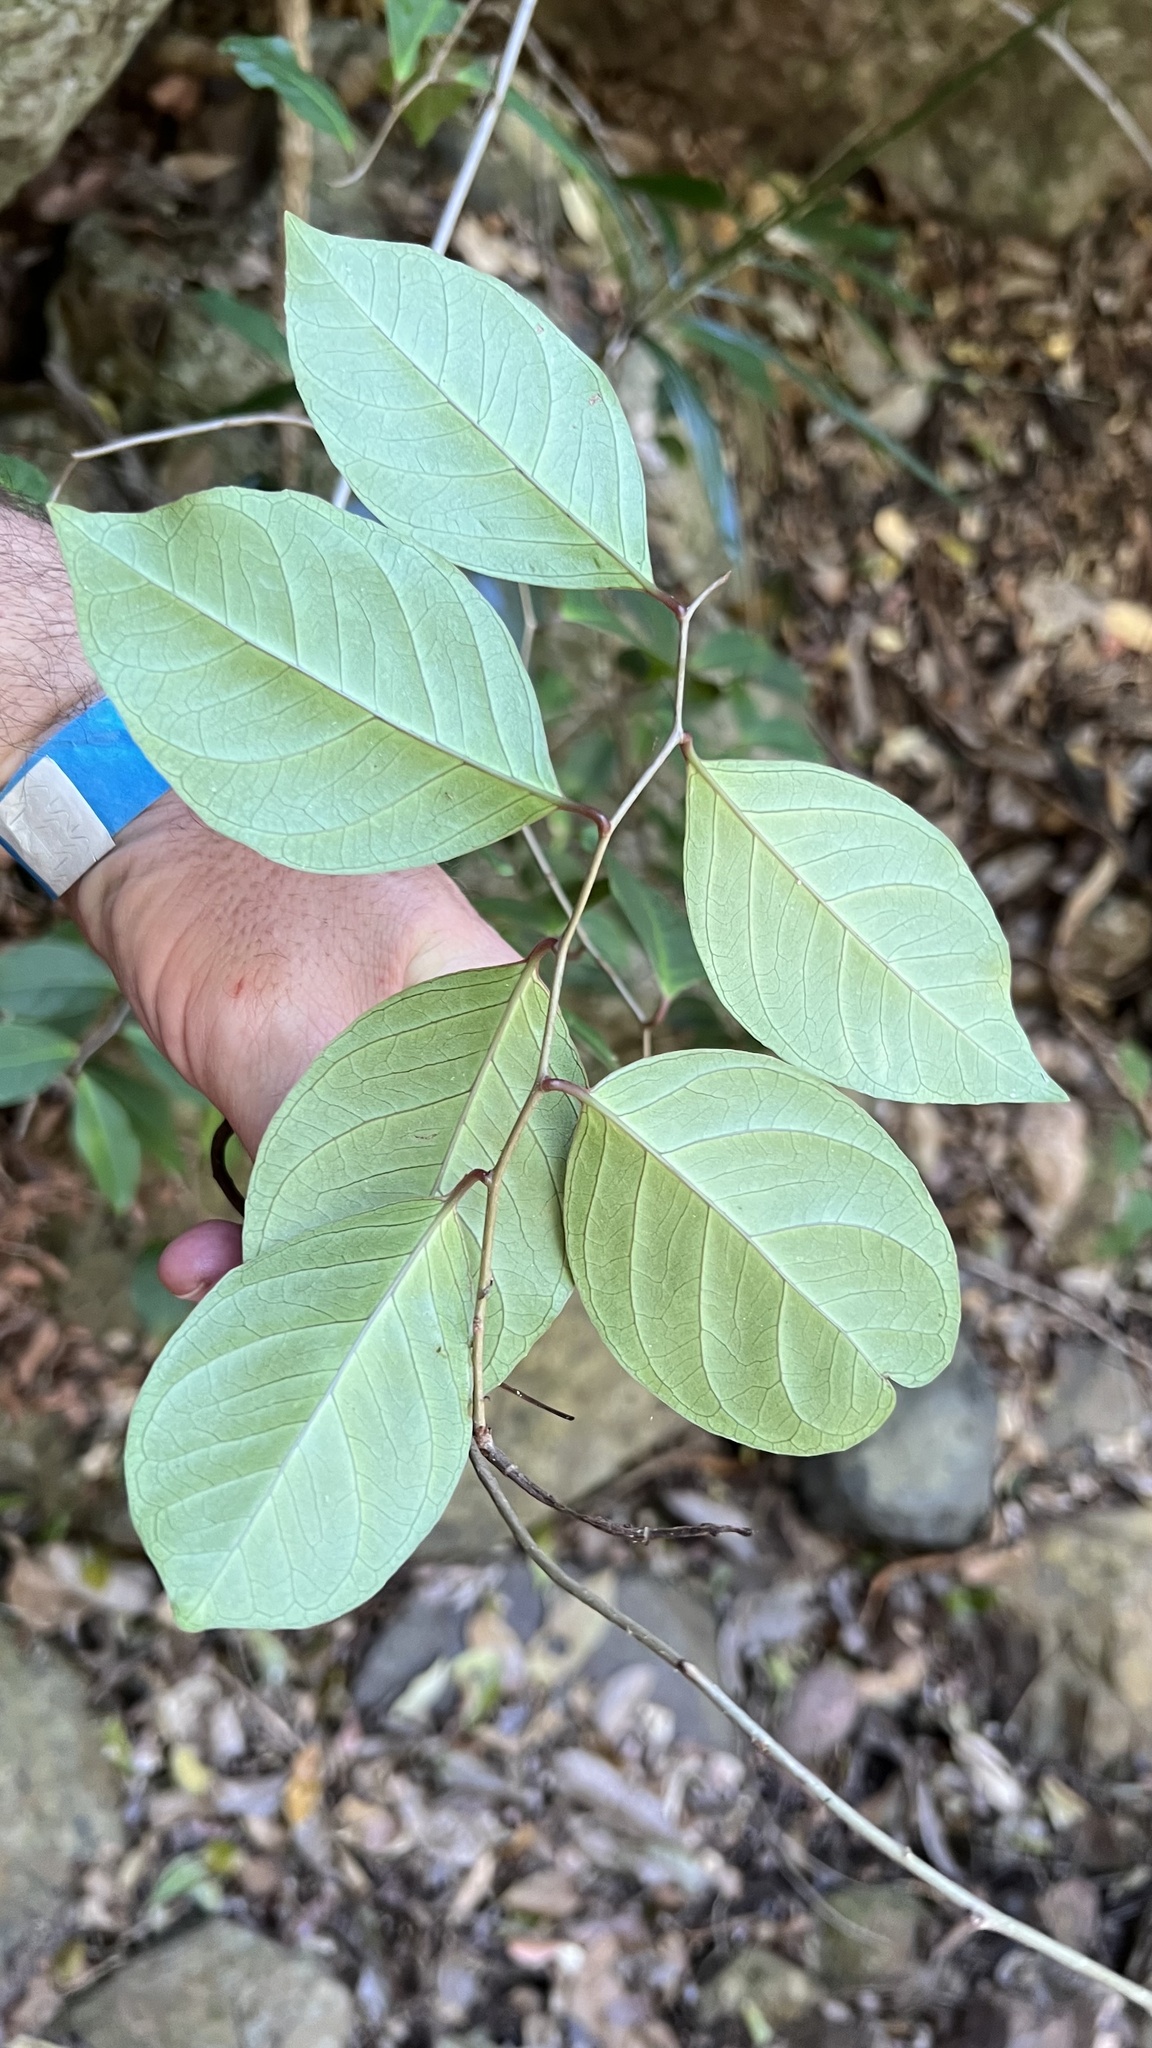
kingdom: Plantae
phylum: Tracheophyta
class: Magnoliopsida
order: Ericales
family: Primulaceae
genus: Embelia
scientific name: Embelia australiana
